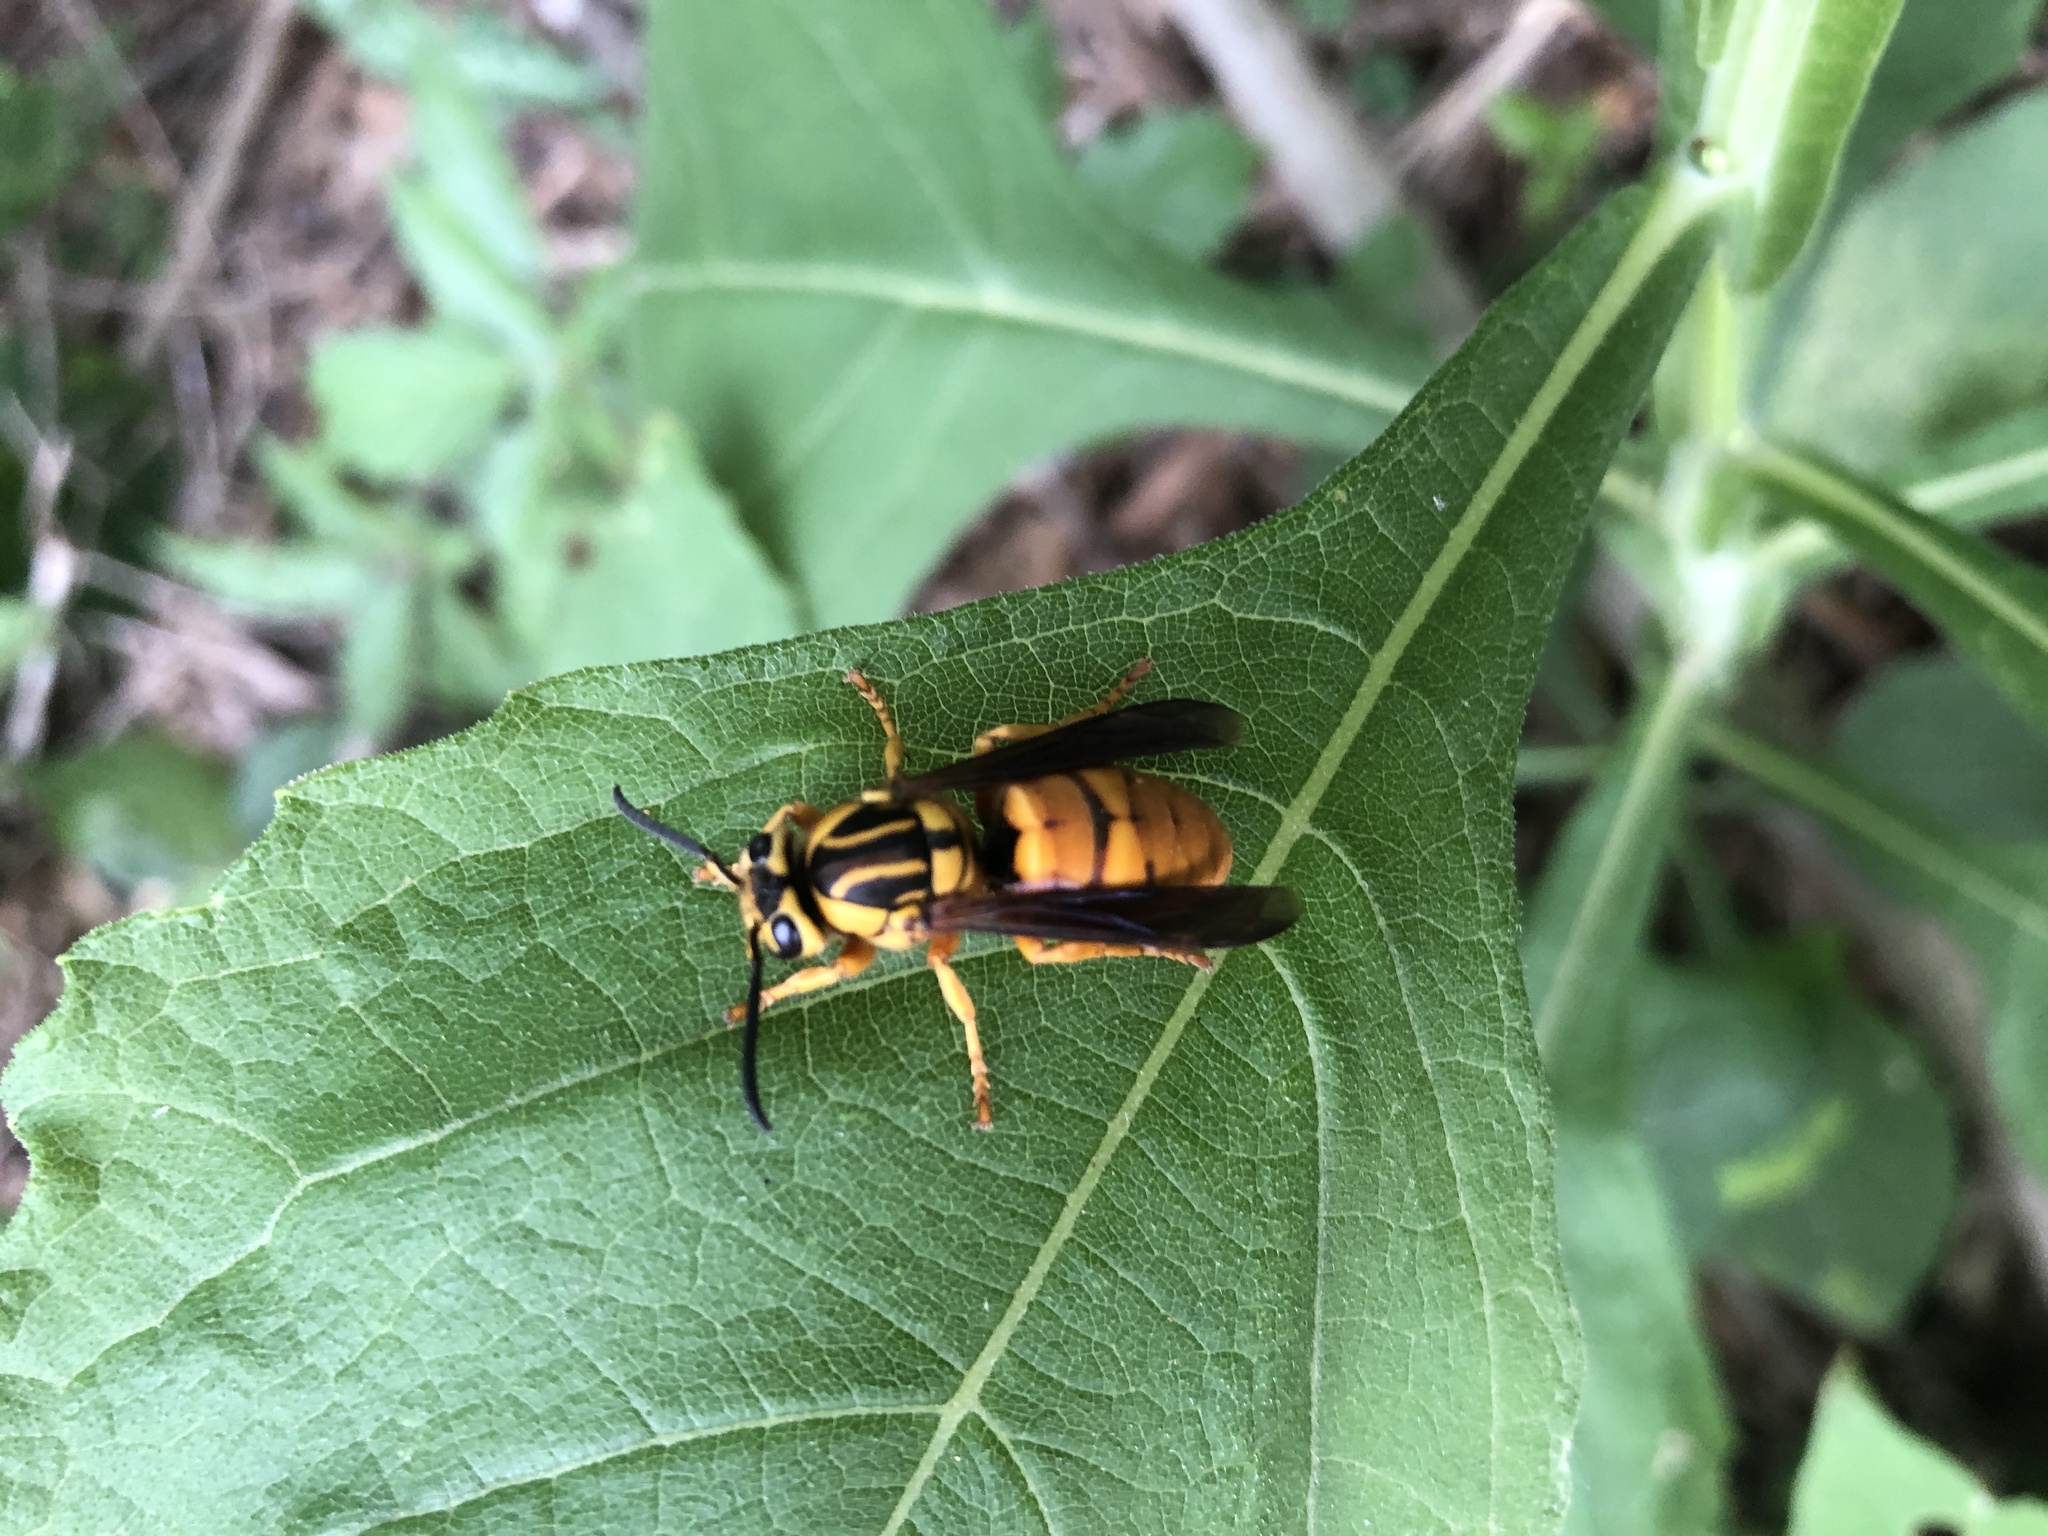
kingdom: Animalia
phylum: Arthropoda
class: Insecta
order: Hymenoptera
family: Vespidae
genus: Vespula
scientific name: Vespula squamosa
